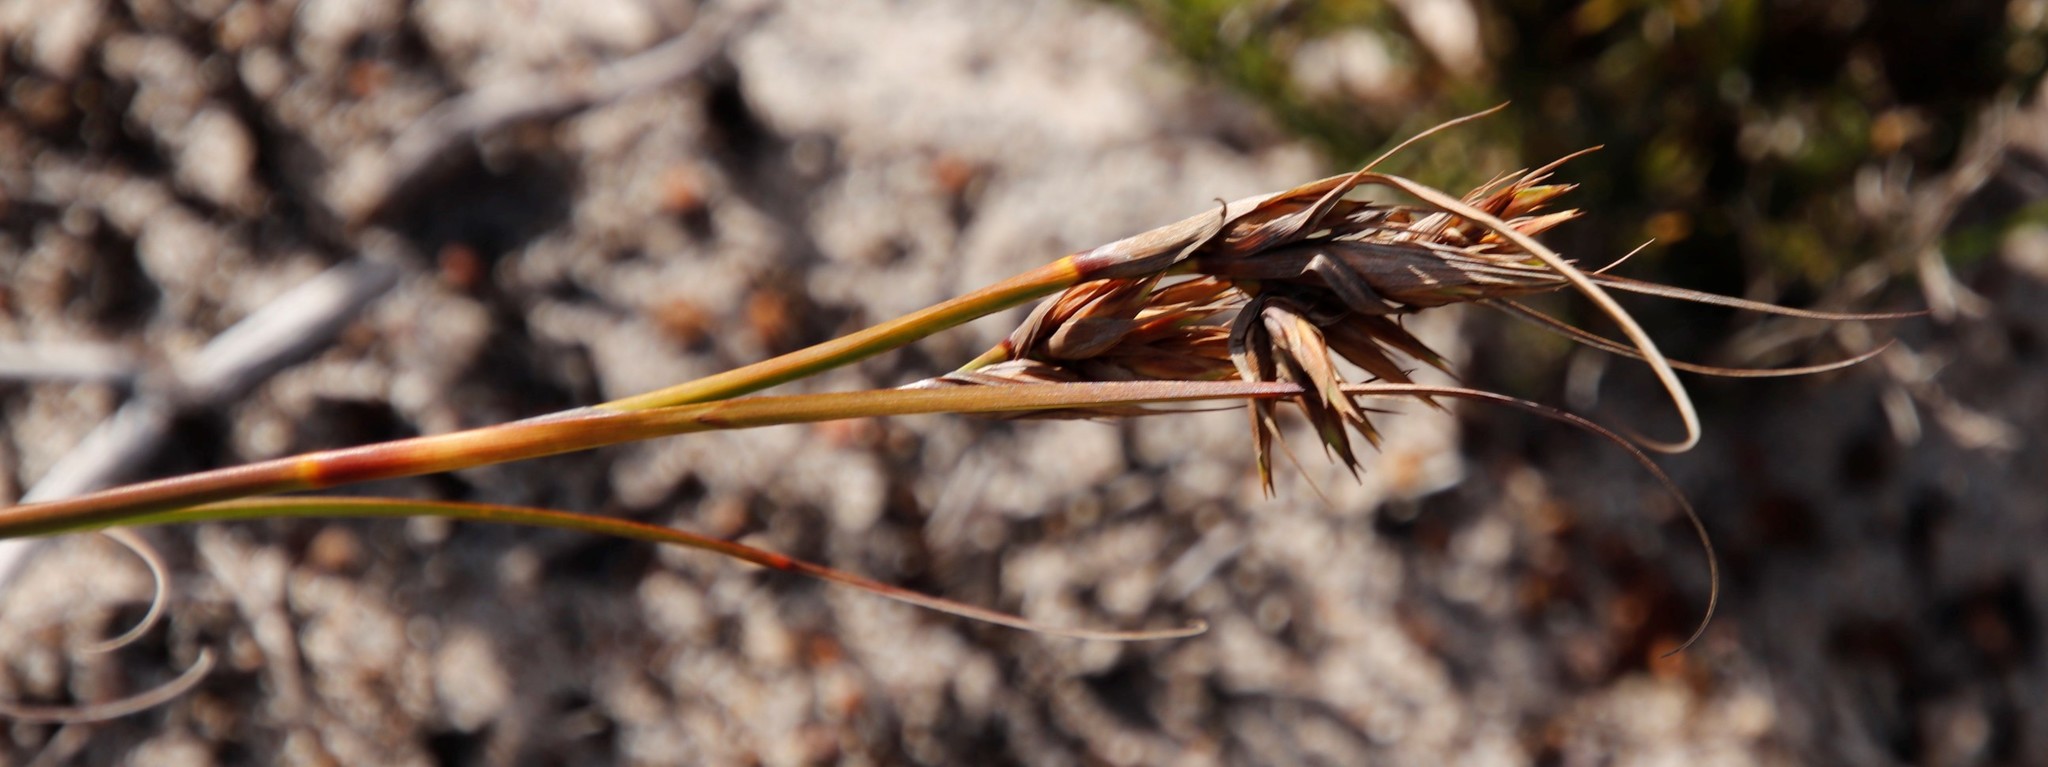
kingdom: Plantae
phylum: Tracheophyta
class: Liliopsida
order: Poales
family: Cyperaceae
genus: Tetraria
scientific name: Tetraria eximia
